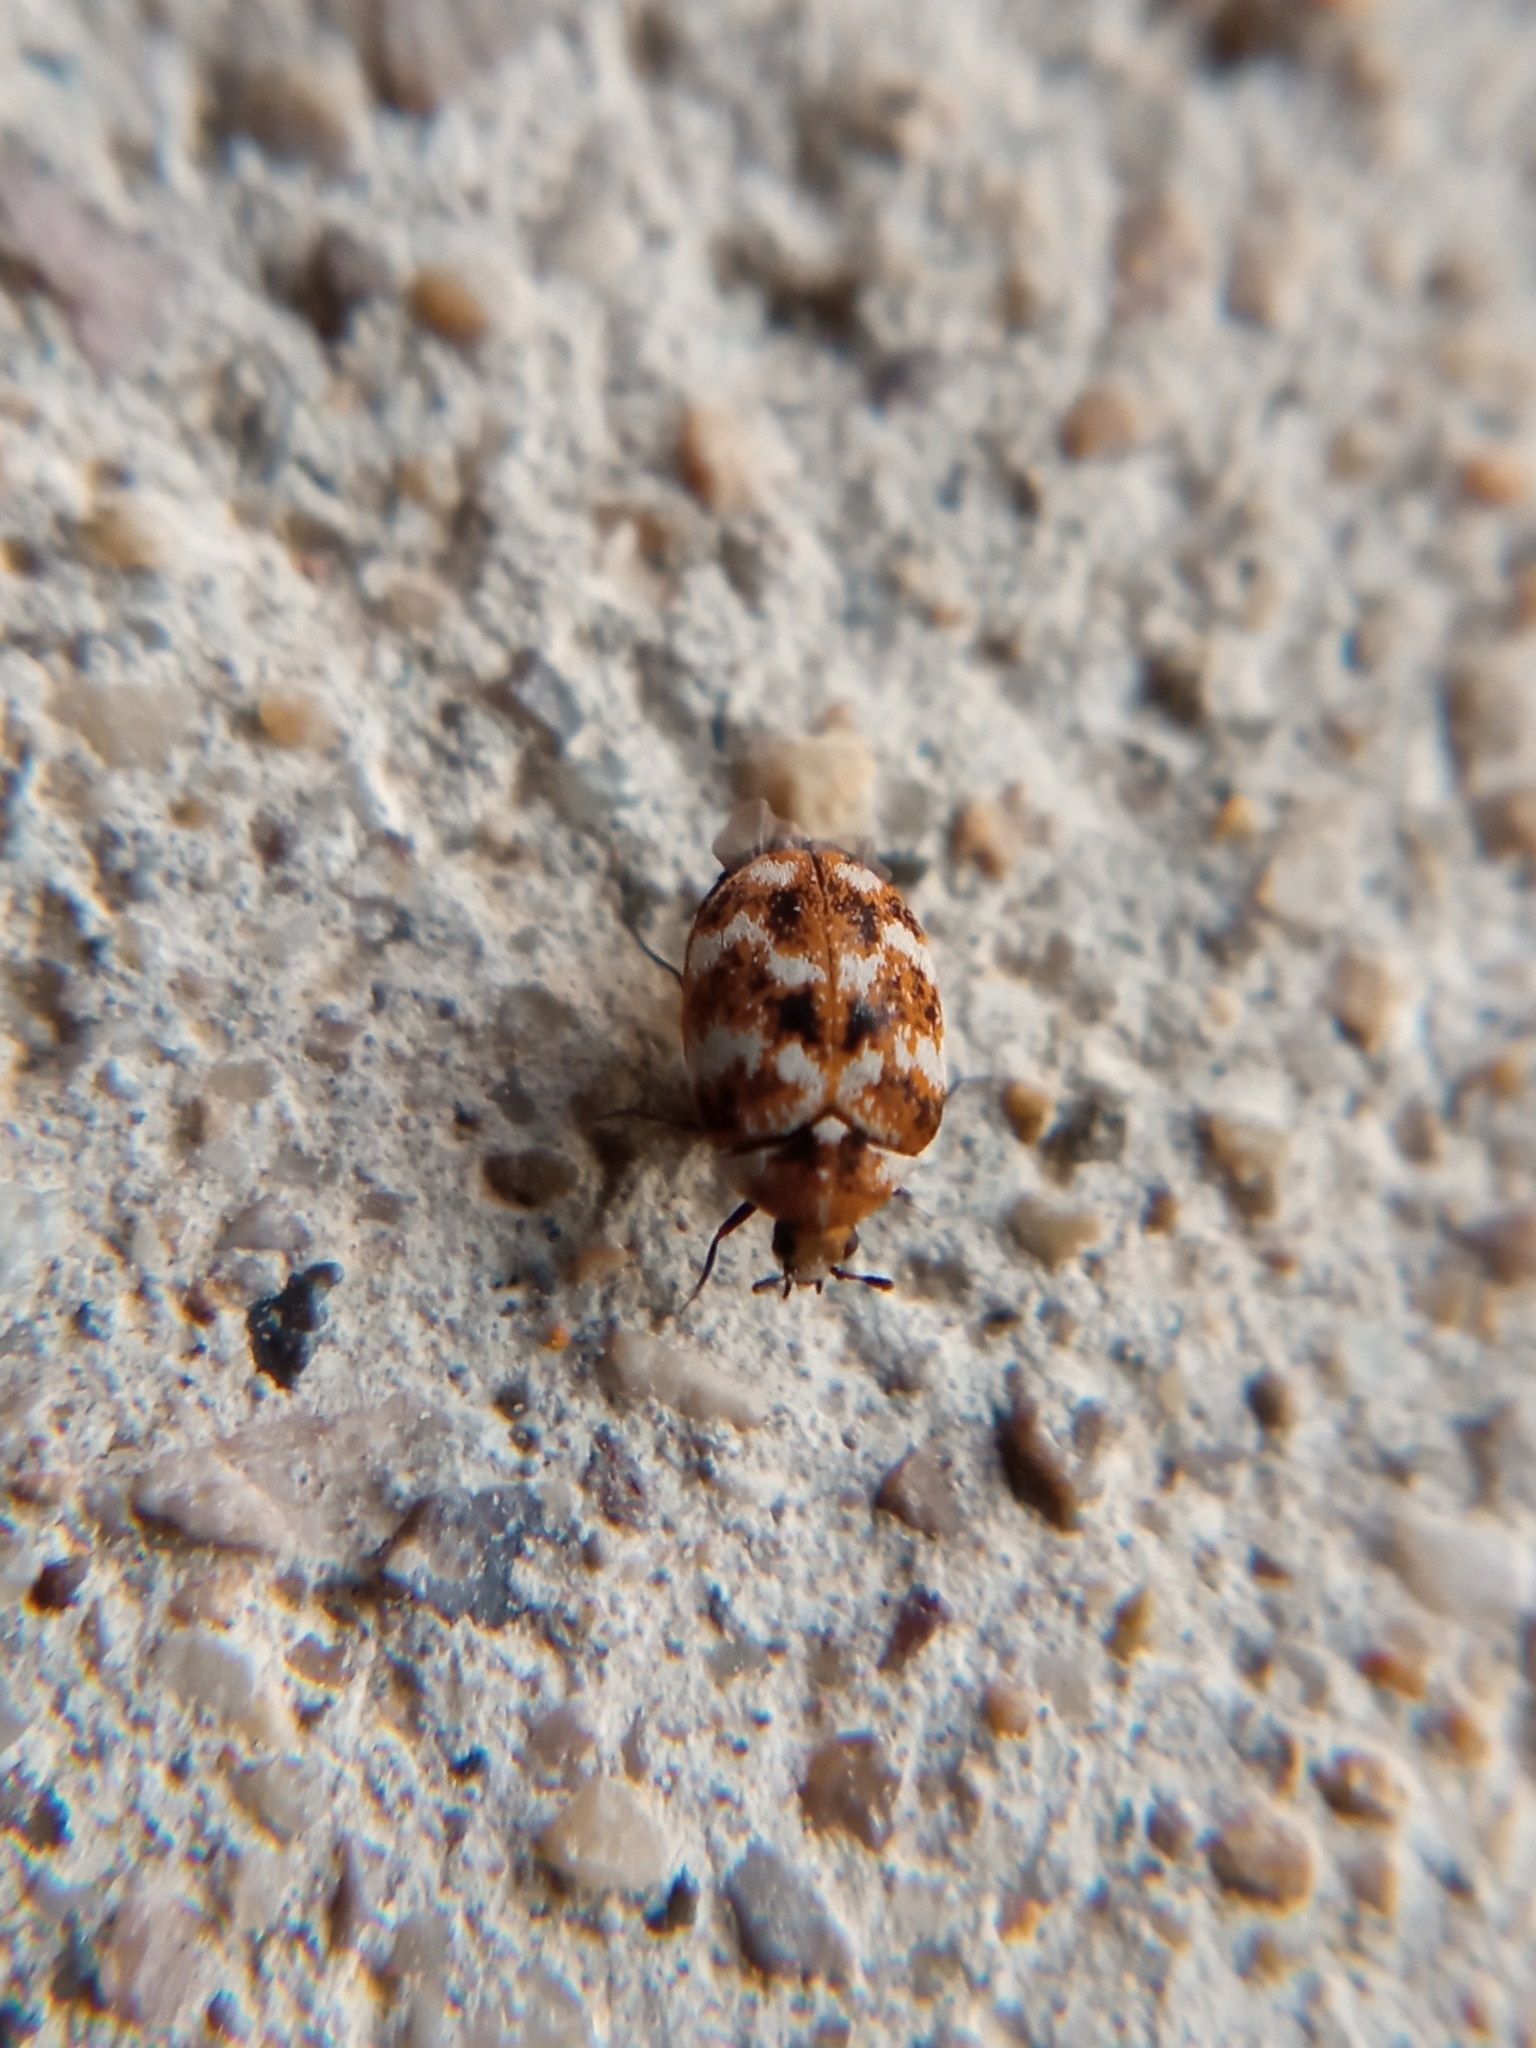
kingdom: Animalia
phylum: Arthropoda
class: Insecta
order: Coleoptera
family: Dermestidae
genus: Anthrenus
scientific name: Anthrenus verbasci
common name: Varied carpet beetle
